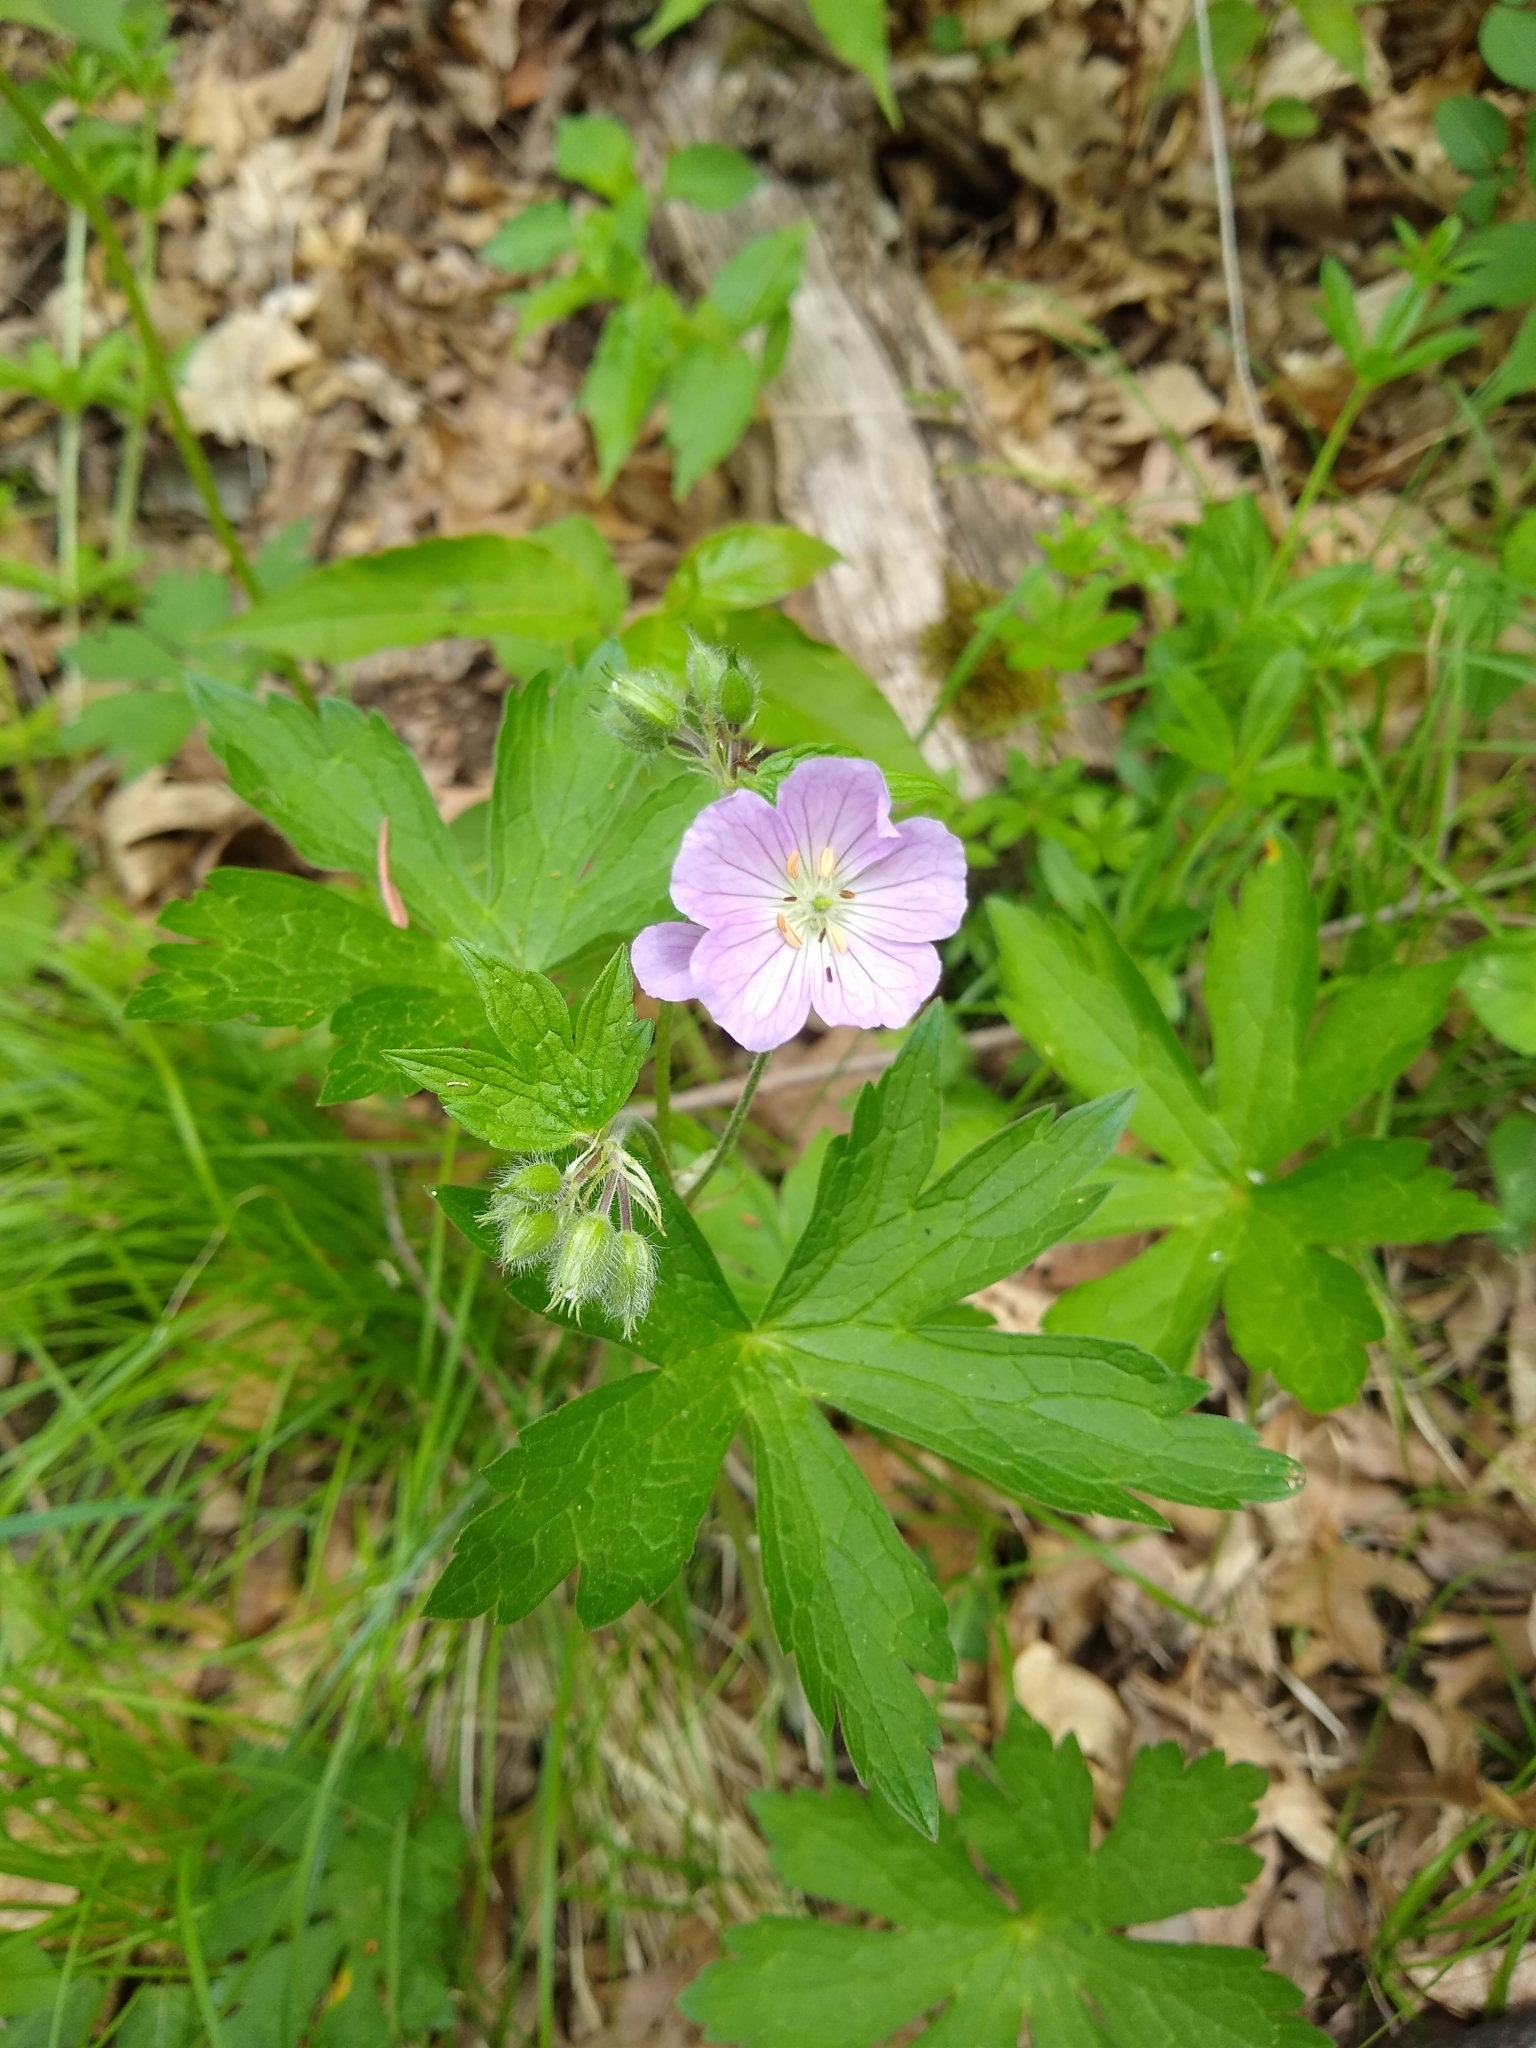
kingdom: Plantae
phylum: Tracheophyta
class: Magnoliopsida
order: Geraniales
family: Geraniaceae
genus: Geranium
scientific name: Geranium maculatum
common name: Spotted geranium
